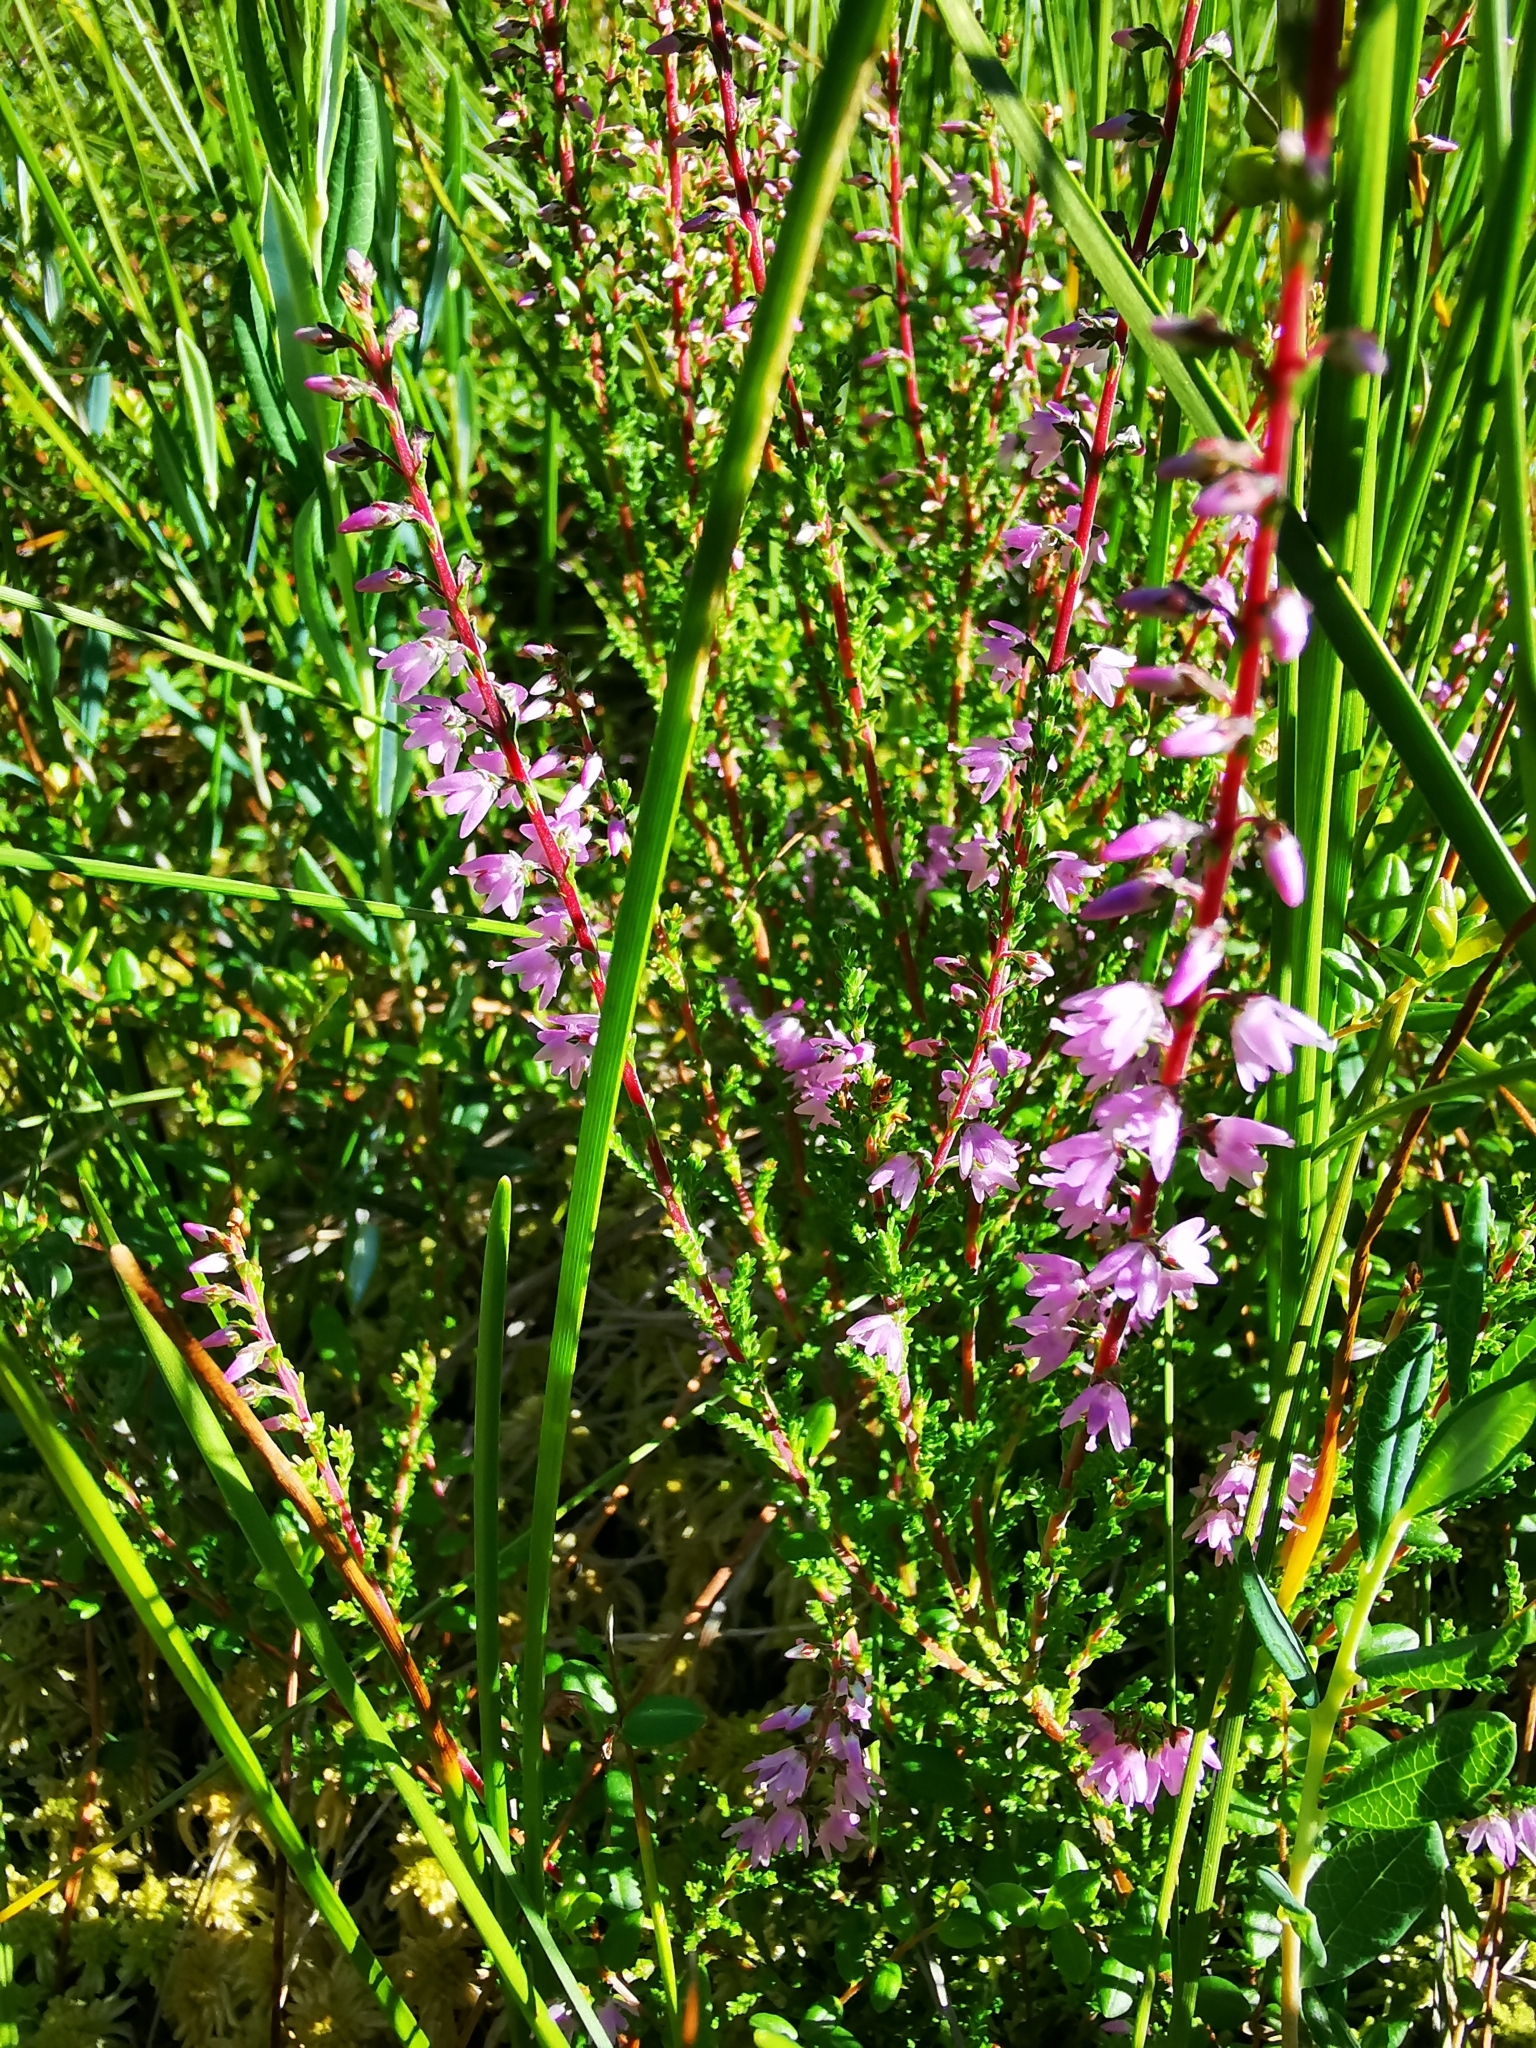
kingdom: Plantae
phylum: Tracheophyta
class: Magnoliopsida
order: Ericales
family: Ericaceae
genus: Calluna
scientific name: Calluna vulgaris
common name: Heather
